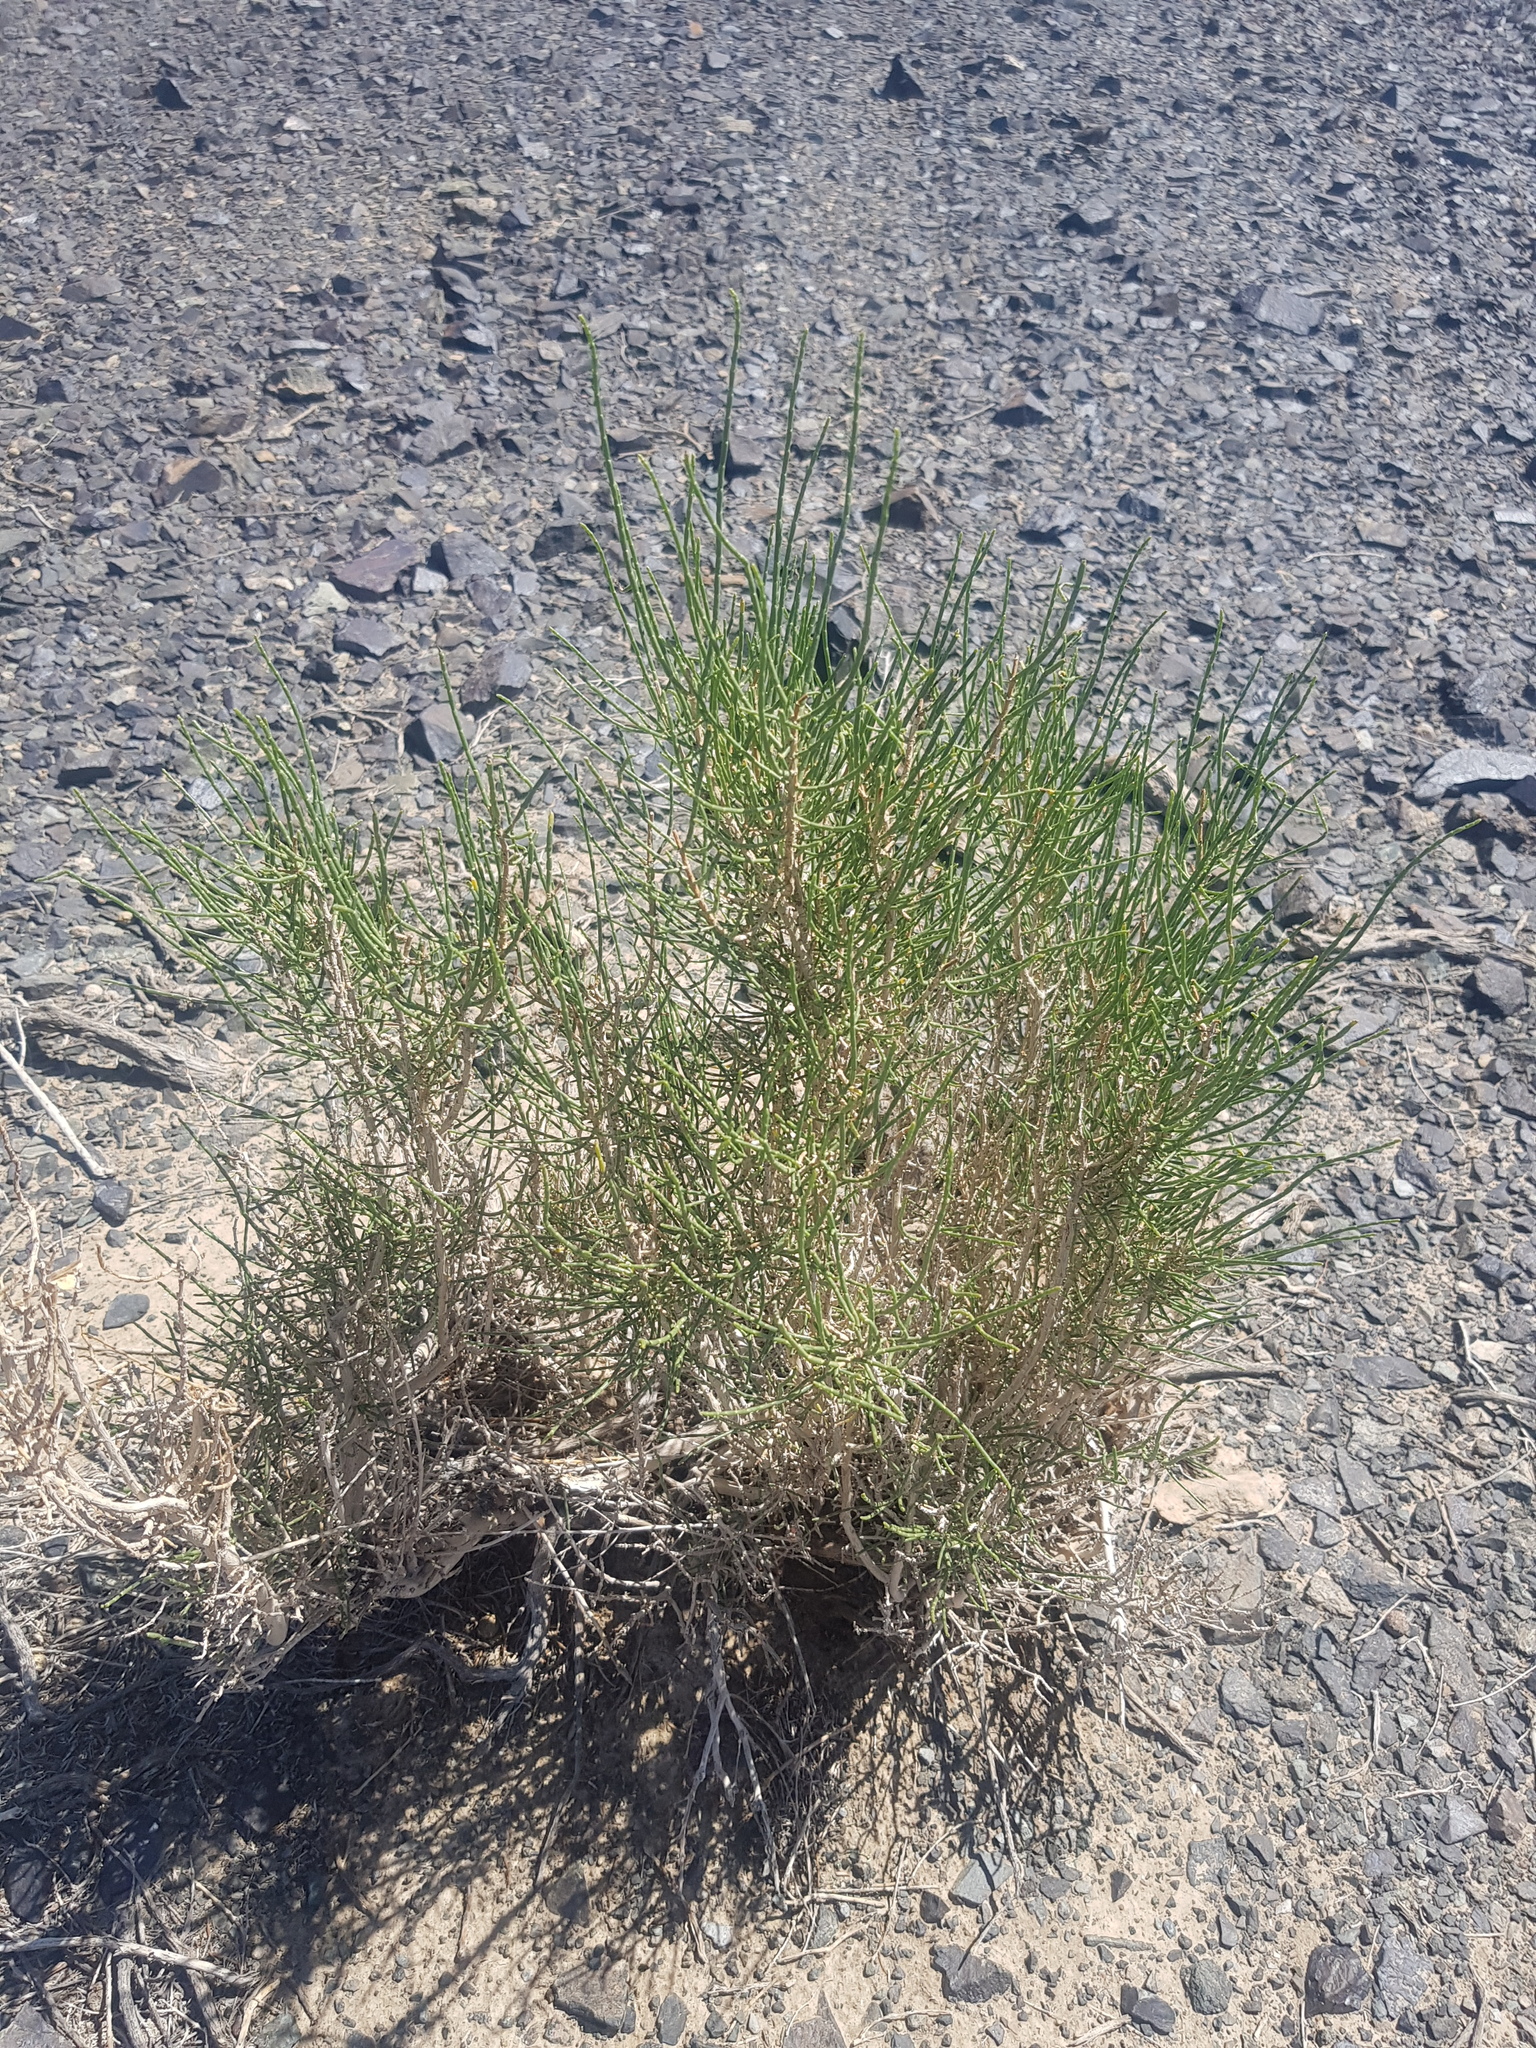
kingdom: Plantae
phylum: Tracheophyta
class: Magnoliopsida
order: Caryophyllales
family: Amaranthaceae
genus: Haloxylon
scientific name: Haloxylon ammodendron
